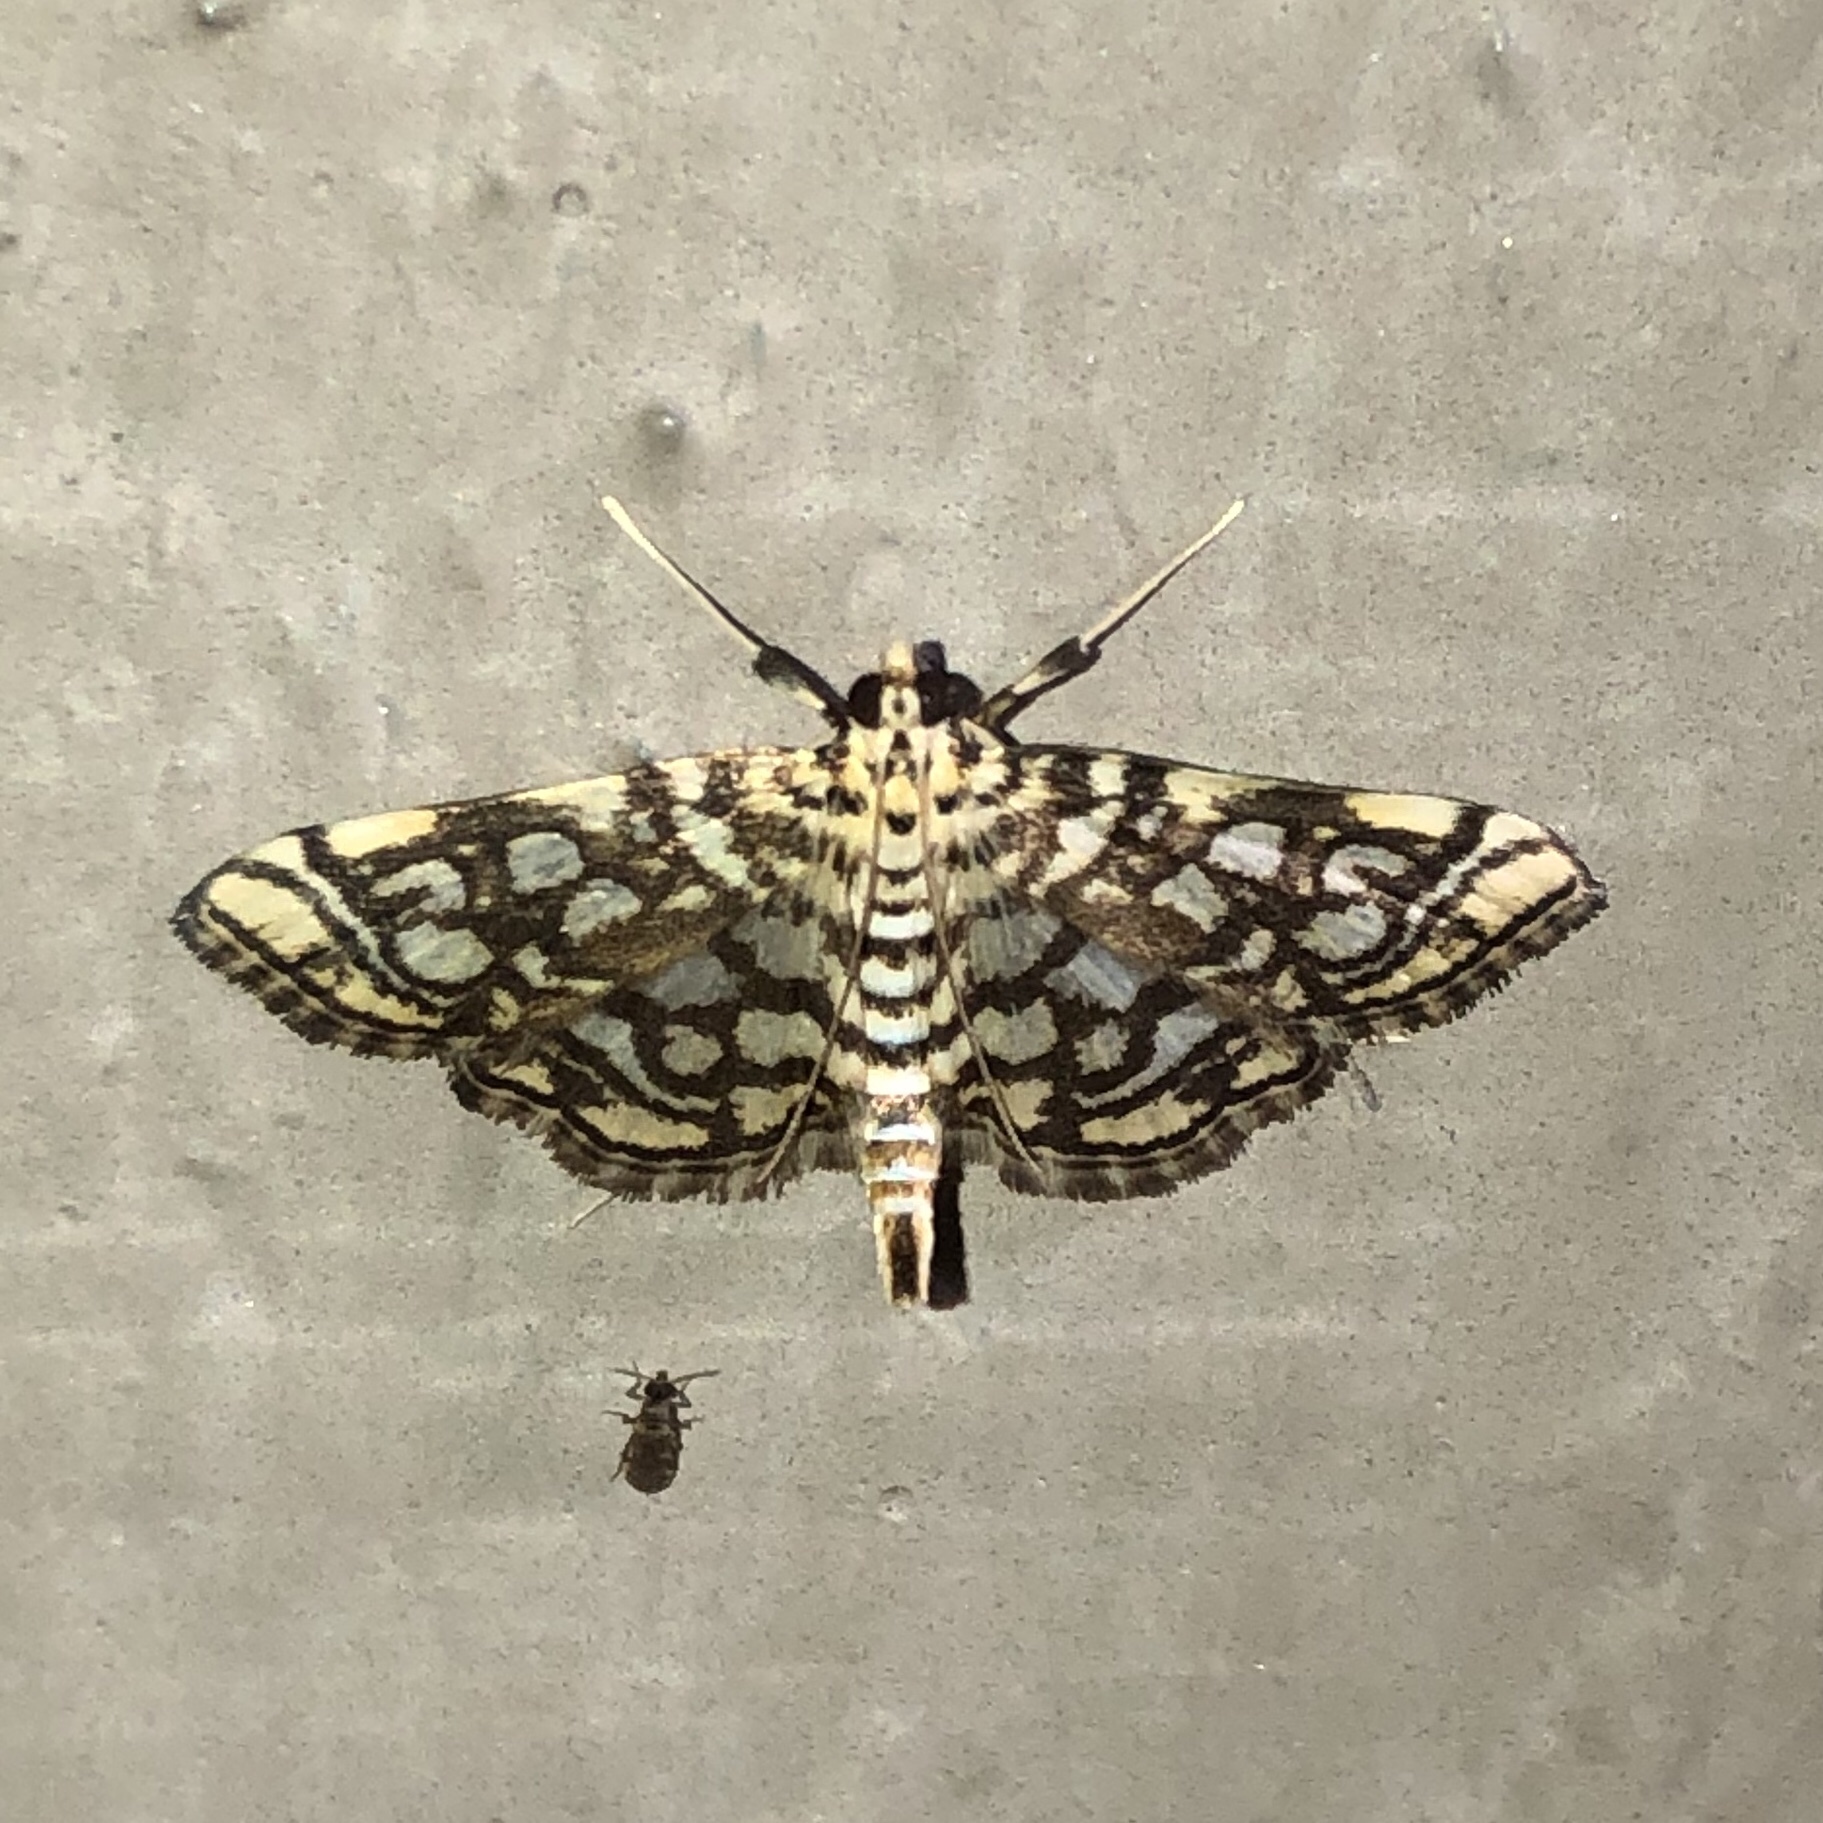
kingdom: Animalia
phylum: Arthropoda
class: Insecta
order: Lepidoptera
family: Crambidae
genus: Lygropia
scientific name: Lygropia rivulalis
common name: Bog lygropia moth
